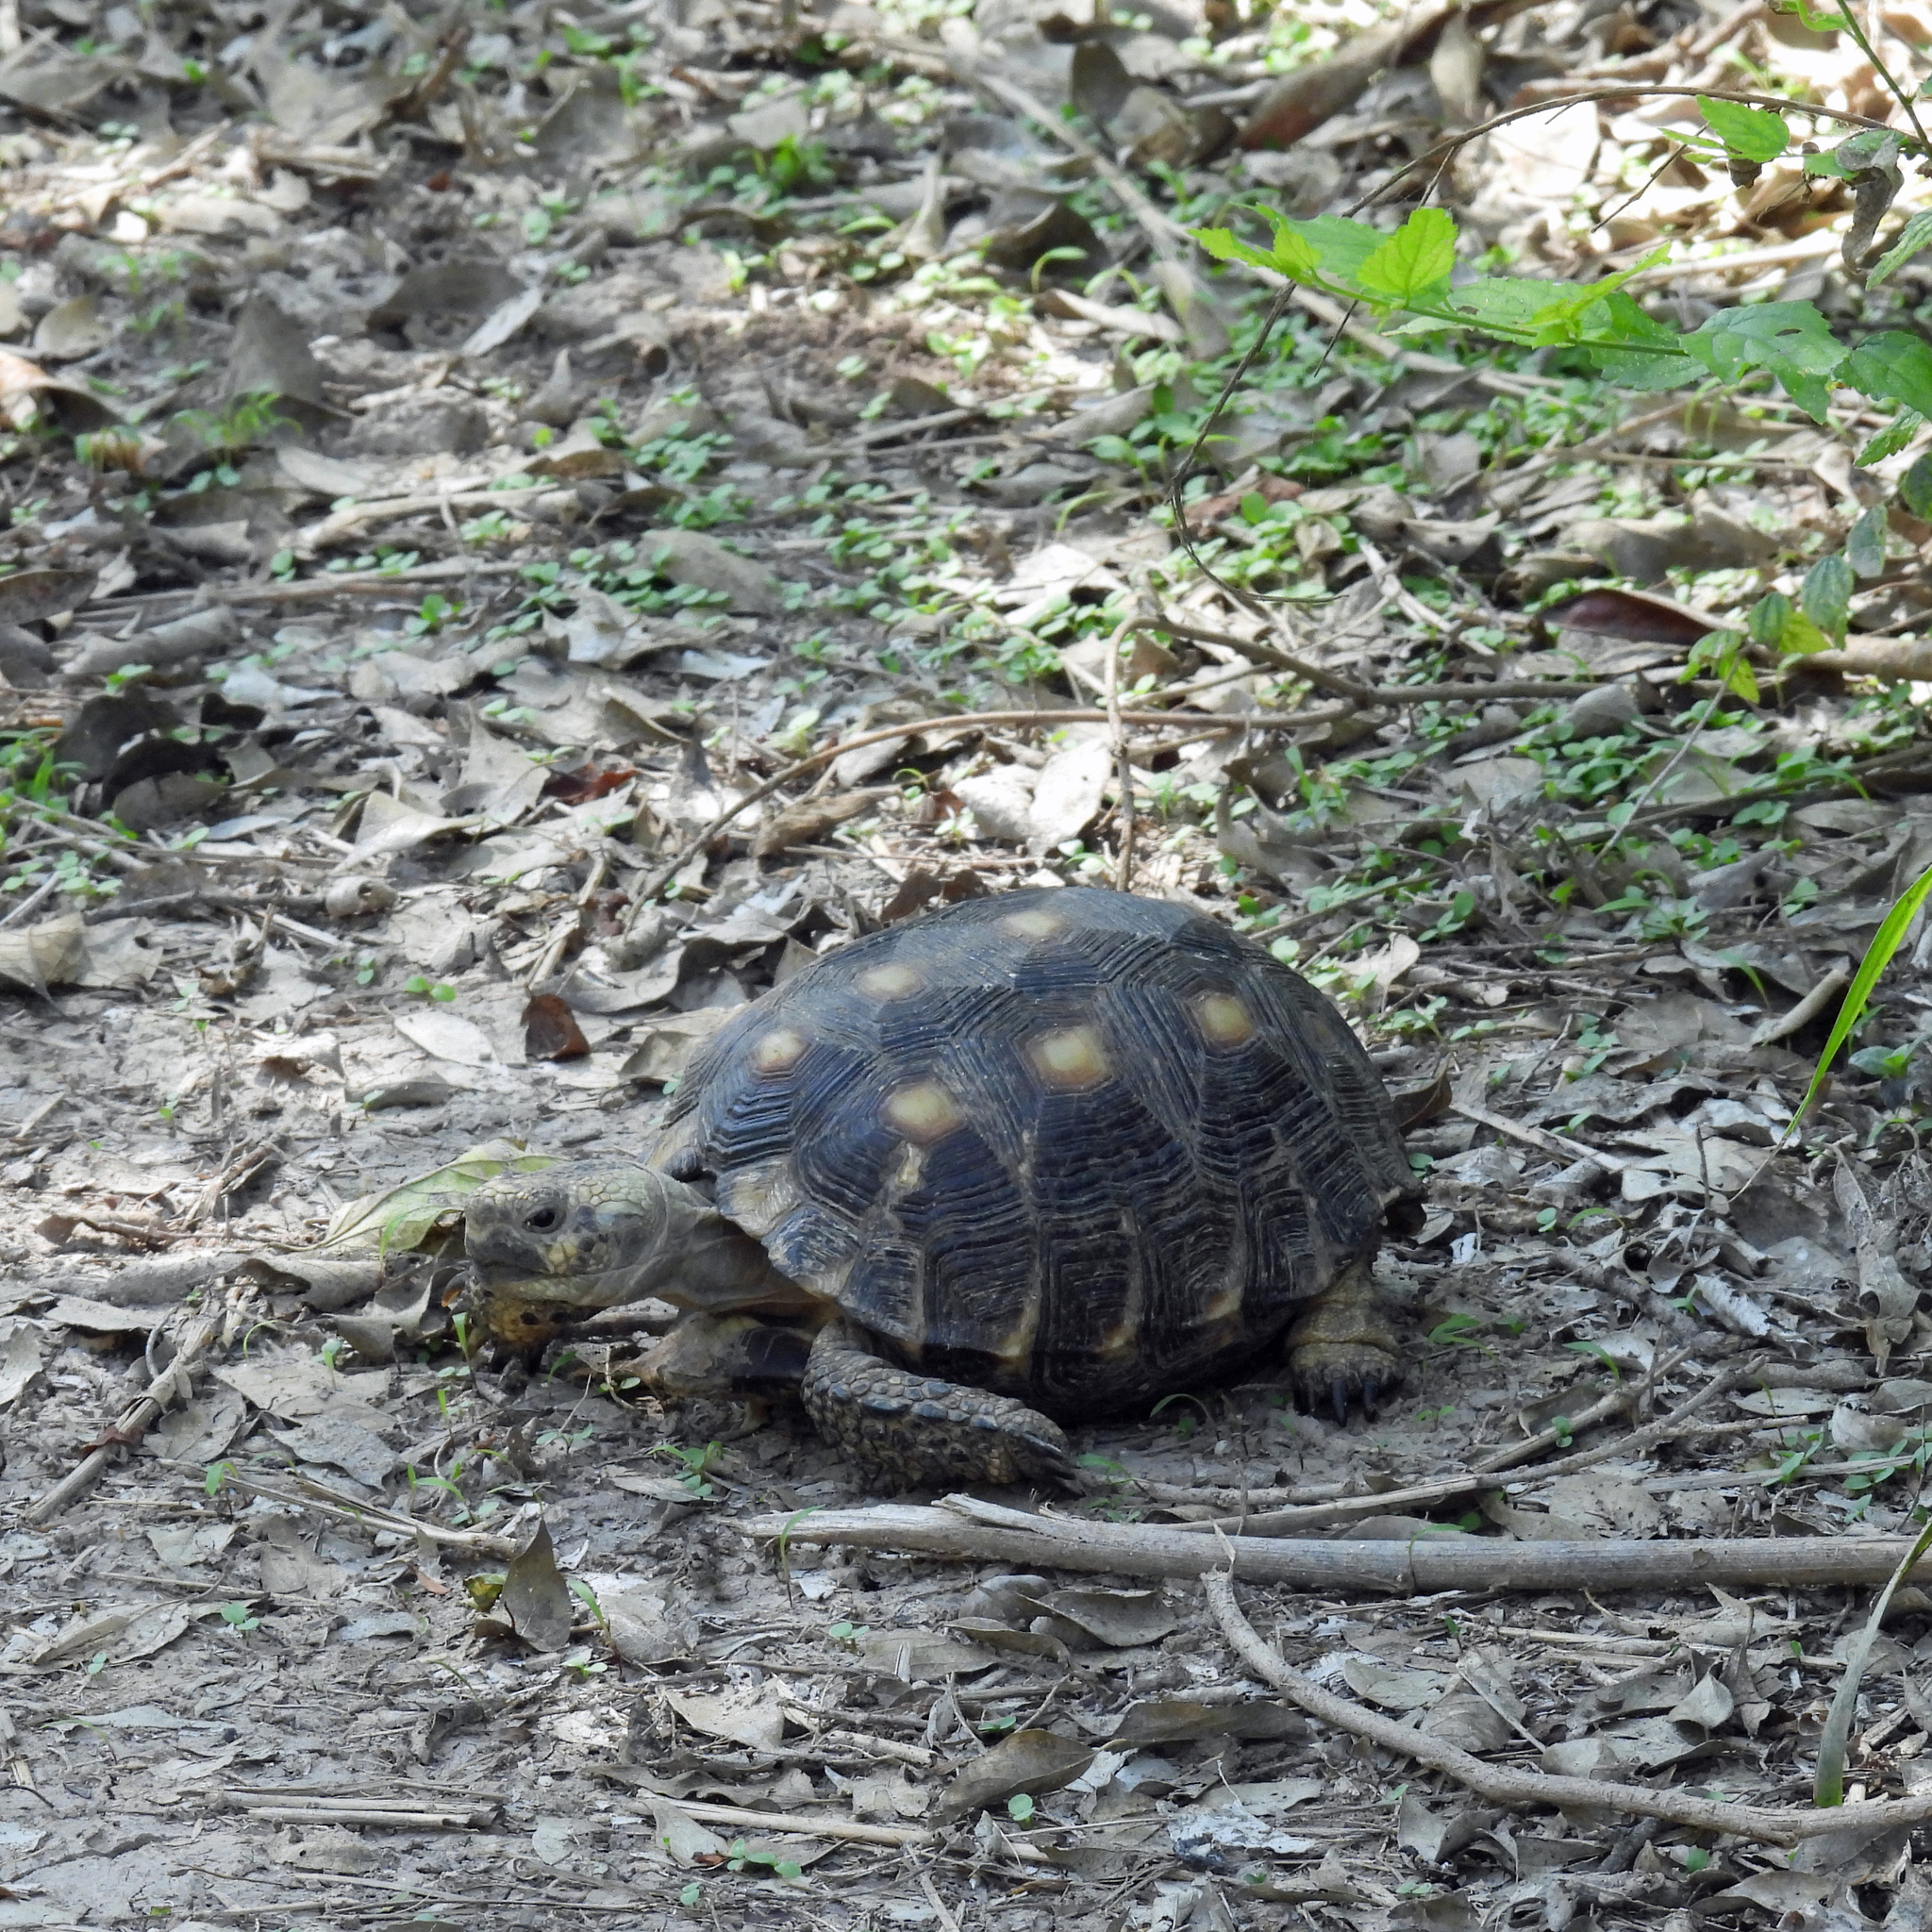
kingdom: Animalia
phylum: Chordata
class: Testudines
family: Testudinidae
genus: Gopherus
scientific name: Gopherus berlandieri
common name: Texas (gopher )tortoise
